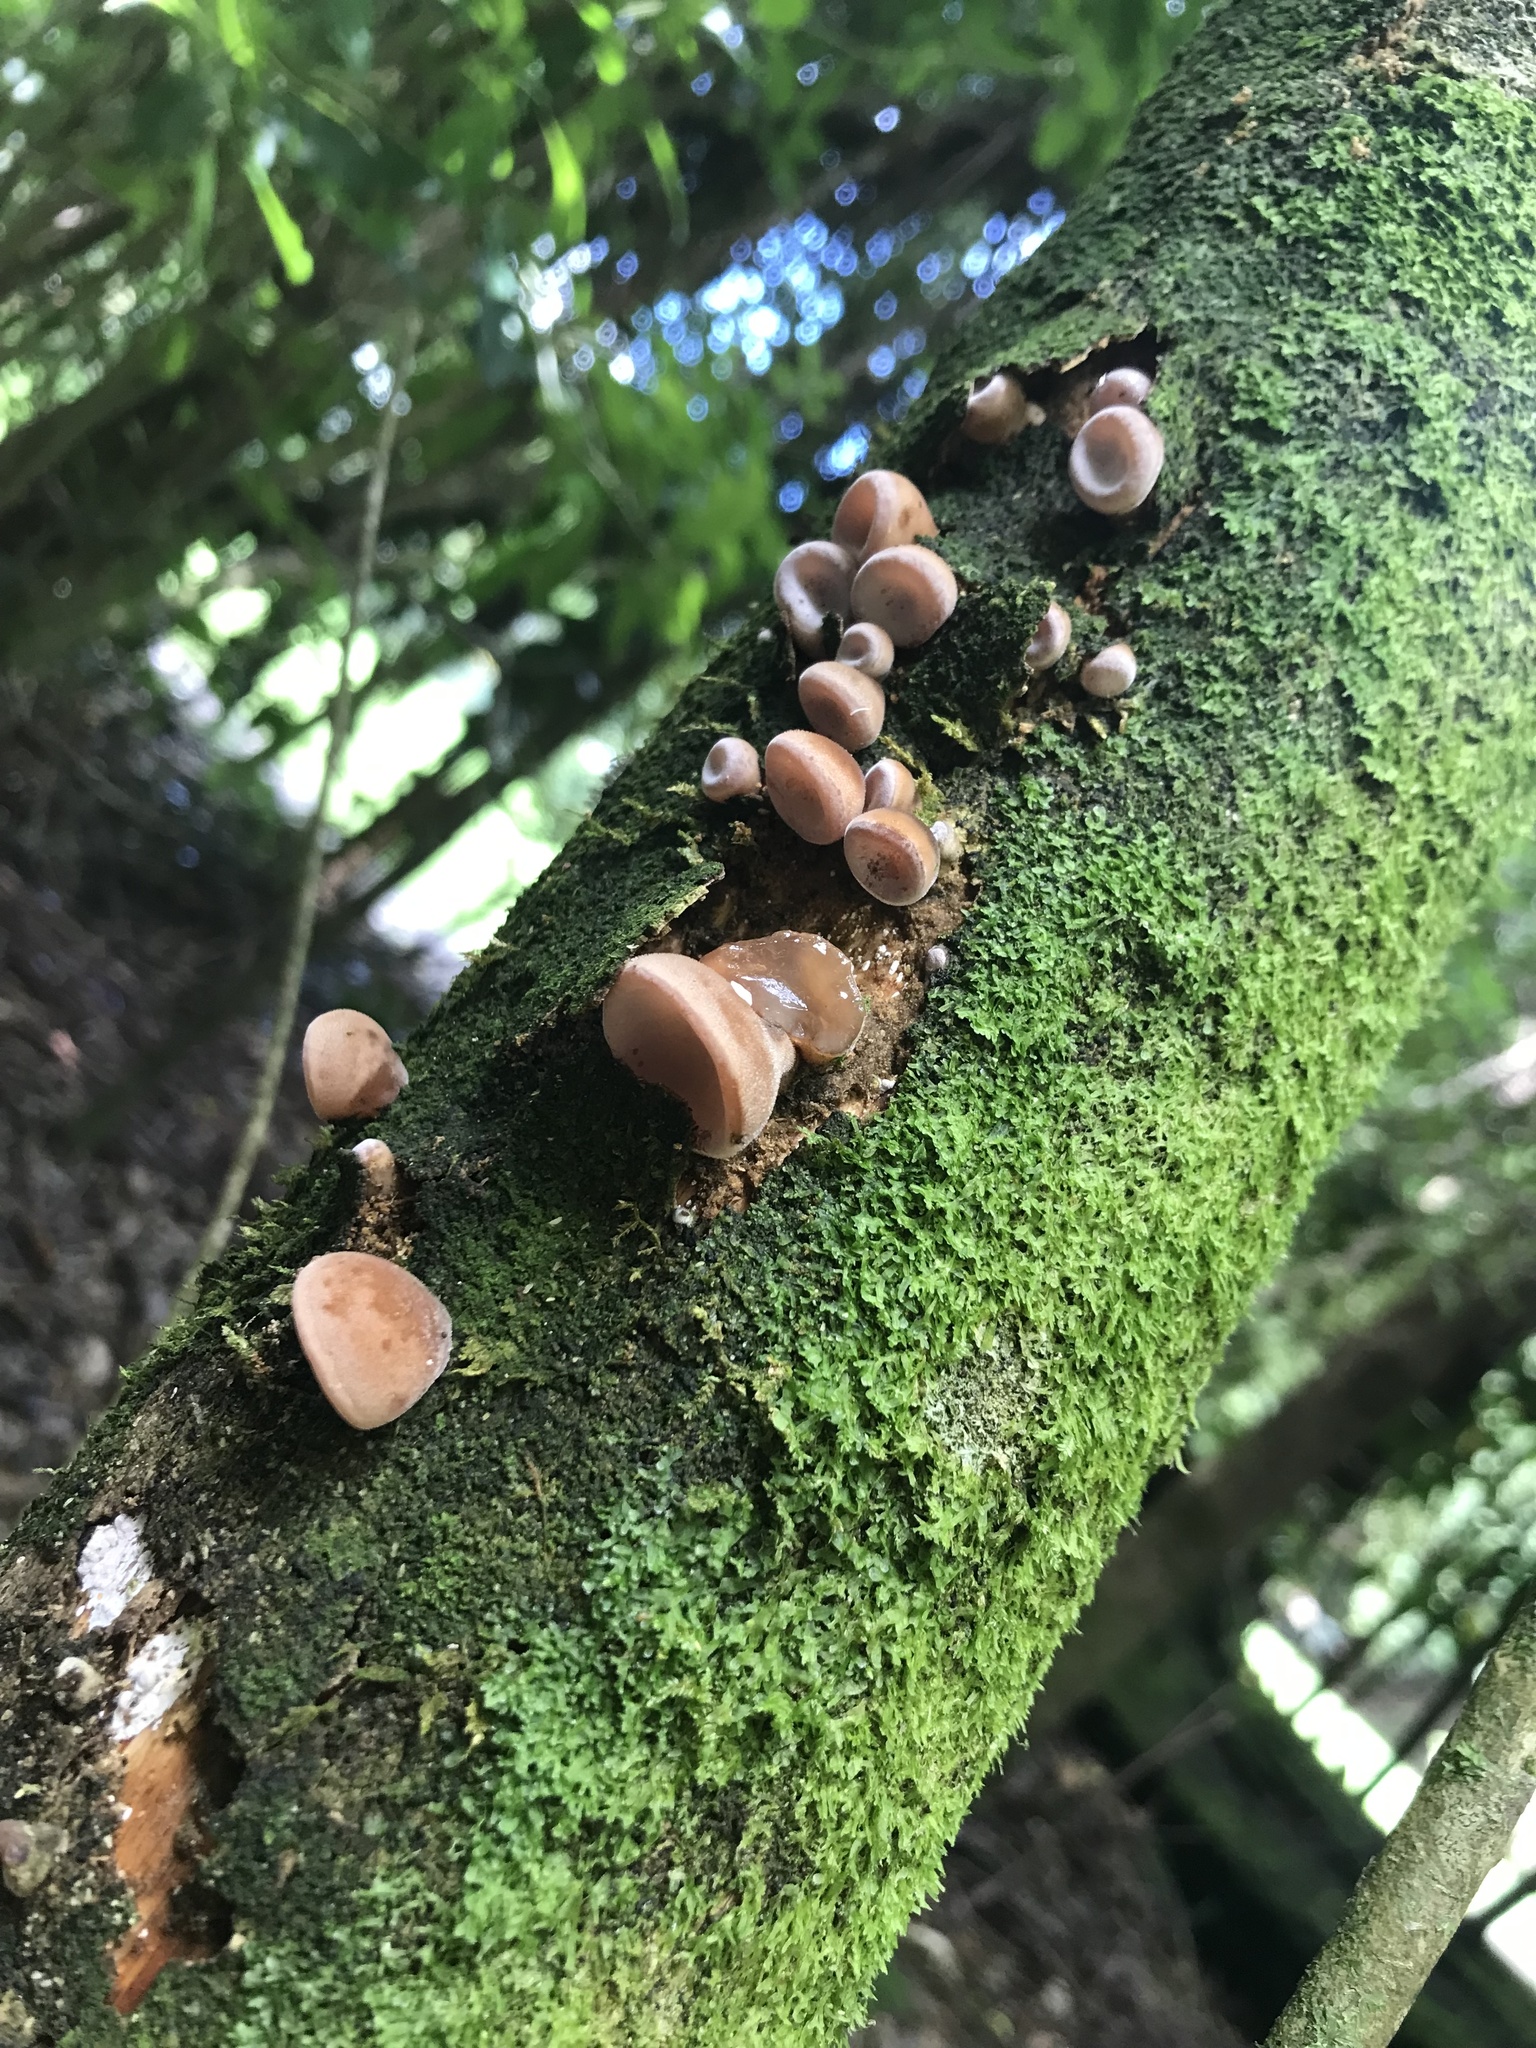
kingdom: Fungi
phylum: Basidiomycota
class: Agaricomycetes
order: Auriculariales
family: Auriculariaceae
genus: Auricularia
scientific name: Auricularia cornea
